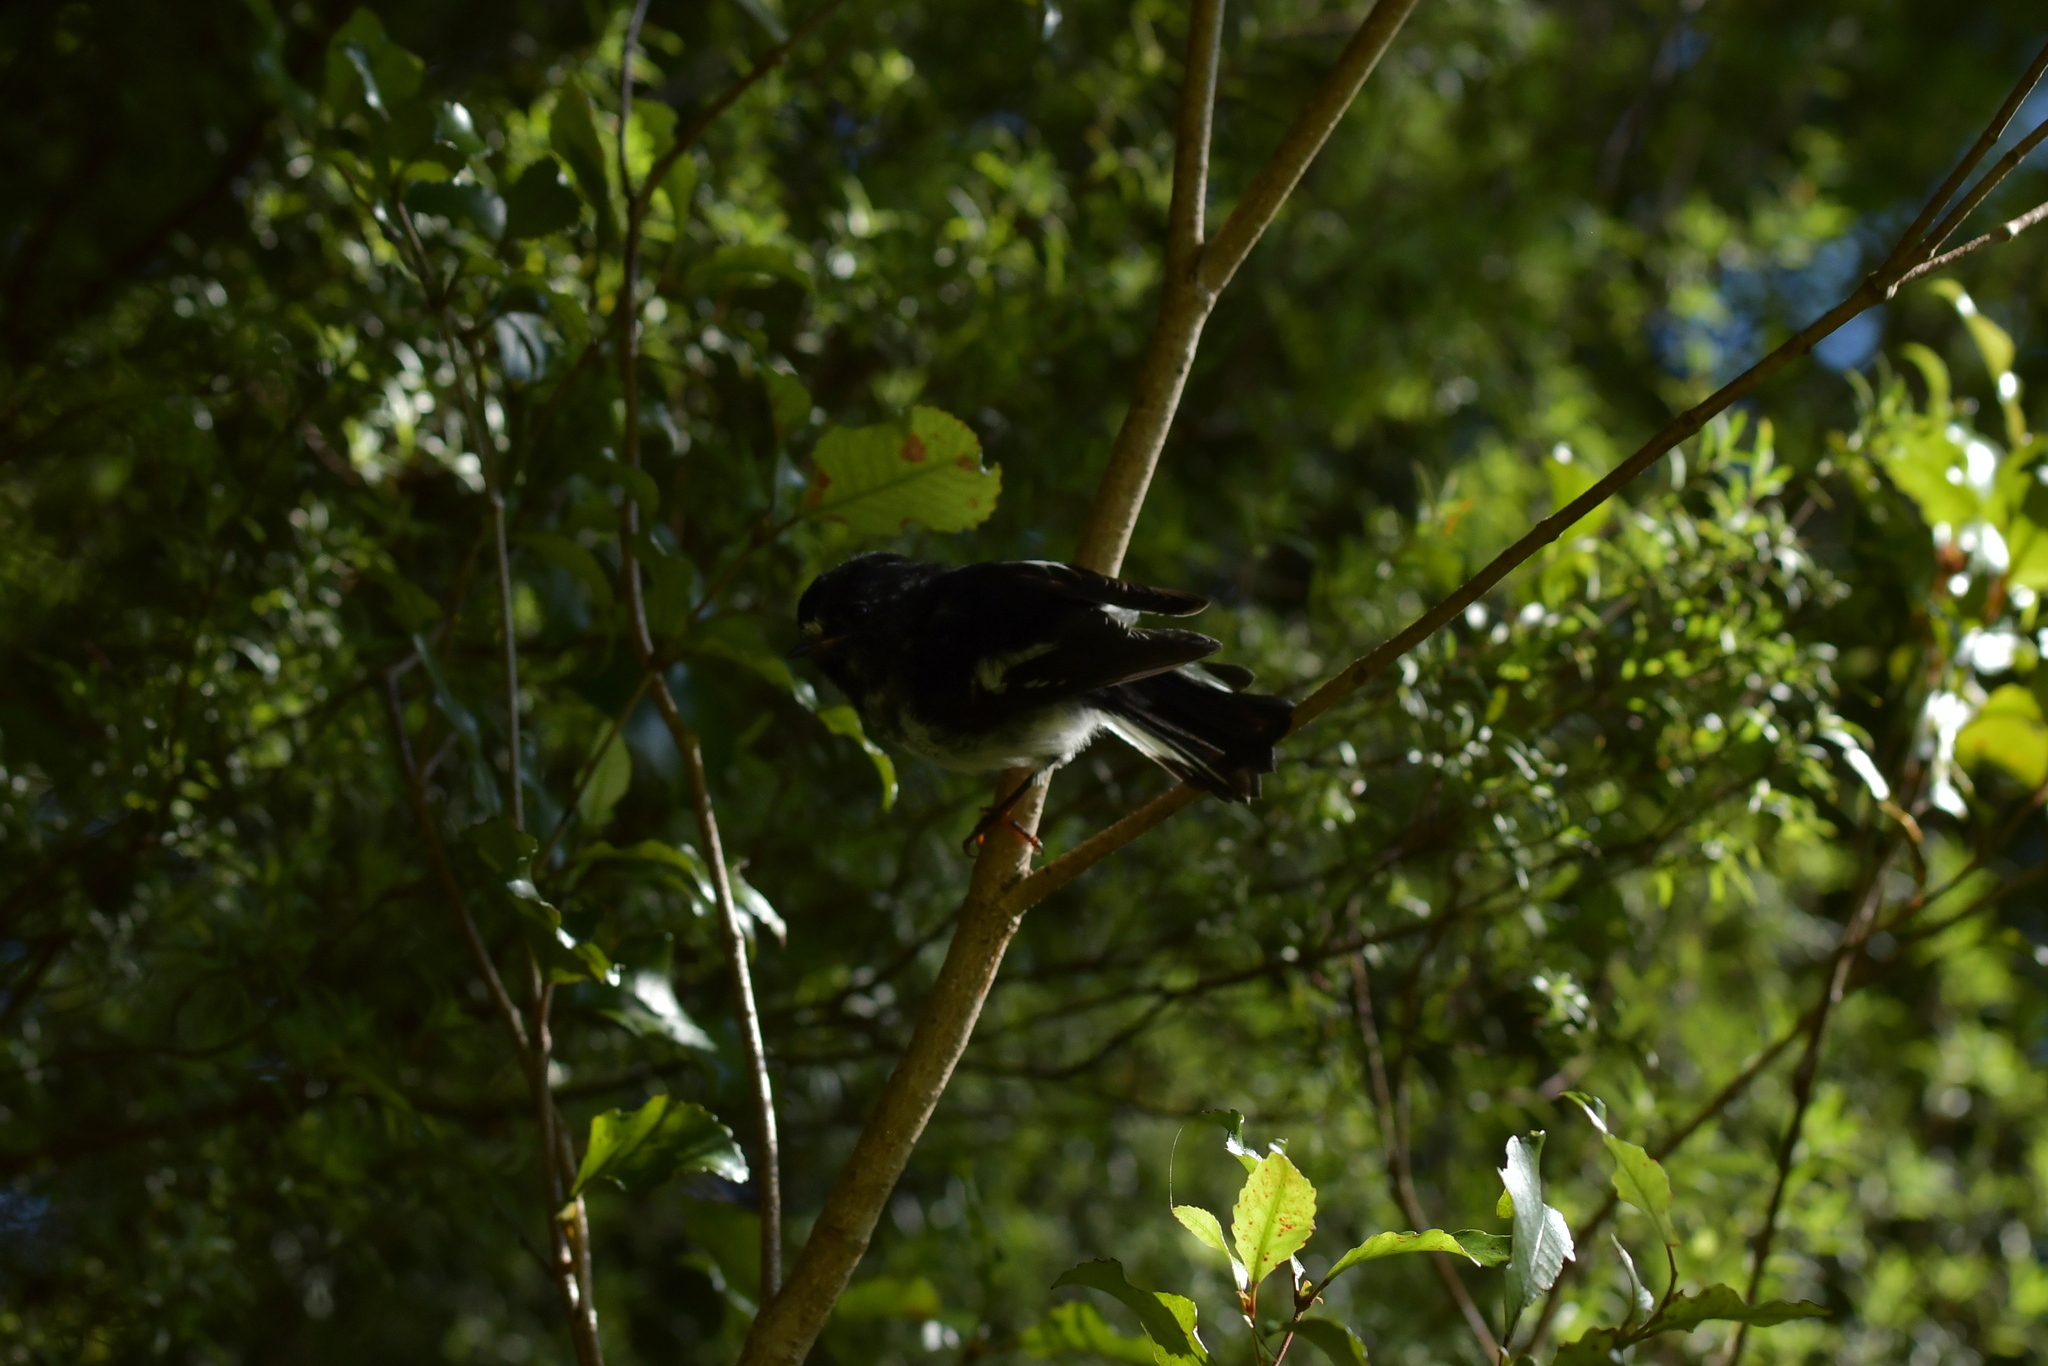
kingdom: Animalia
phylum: Chordata
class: Aves
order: Passeriformes
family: Petroicidae
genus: Petroica
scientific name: Petroica macrocephala
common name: Tomtit
